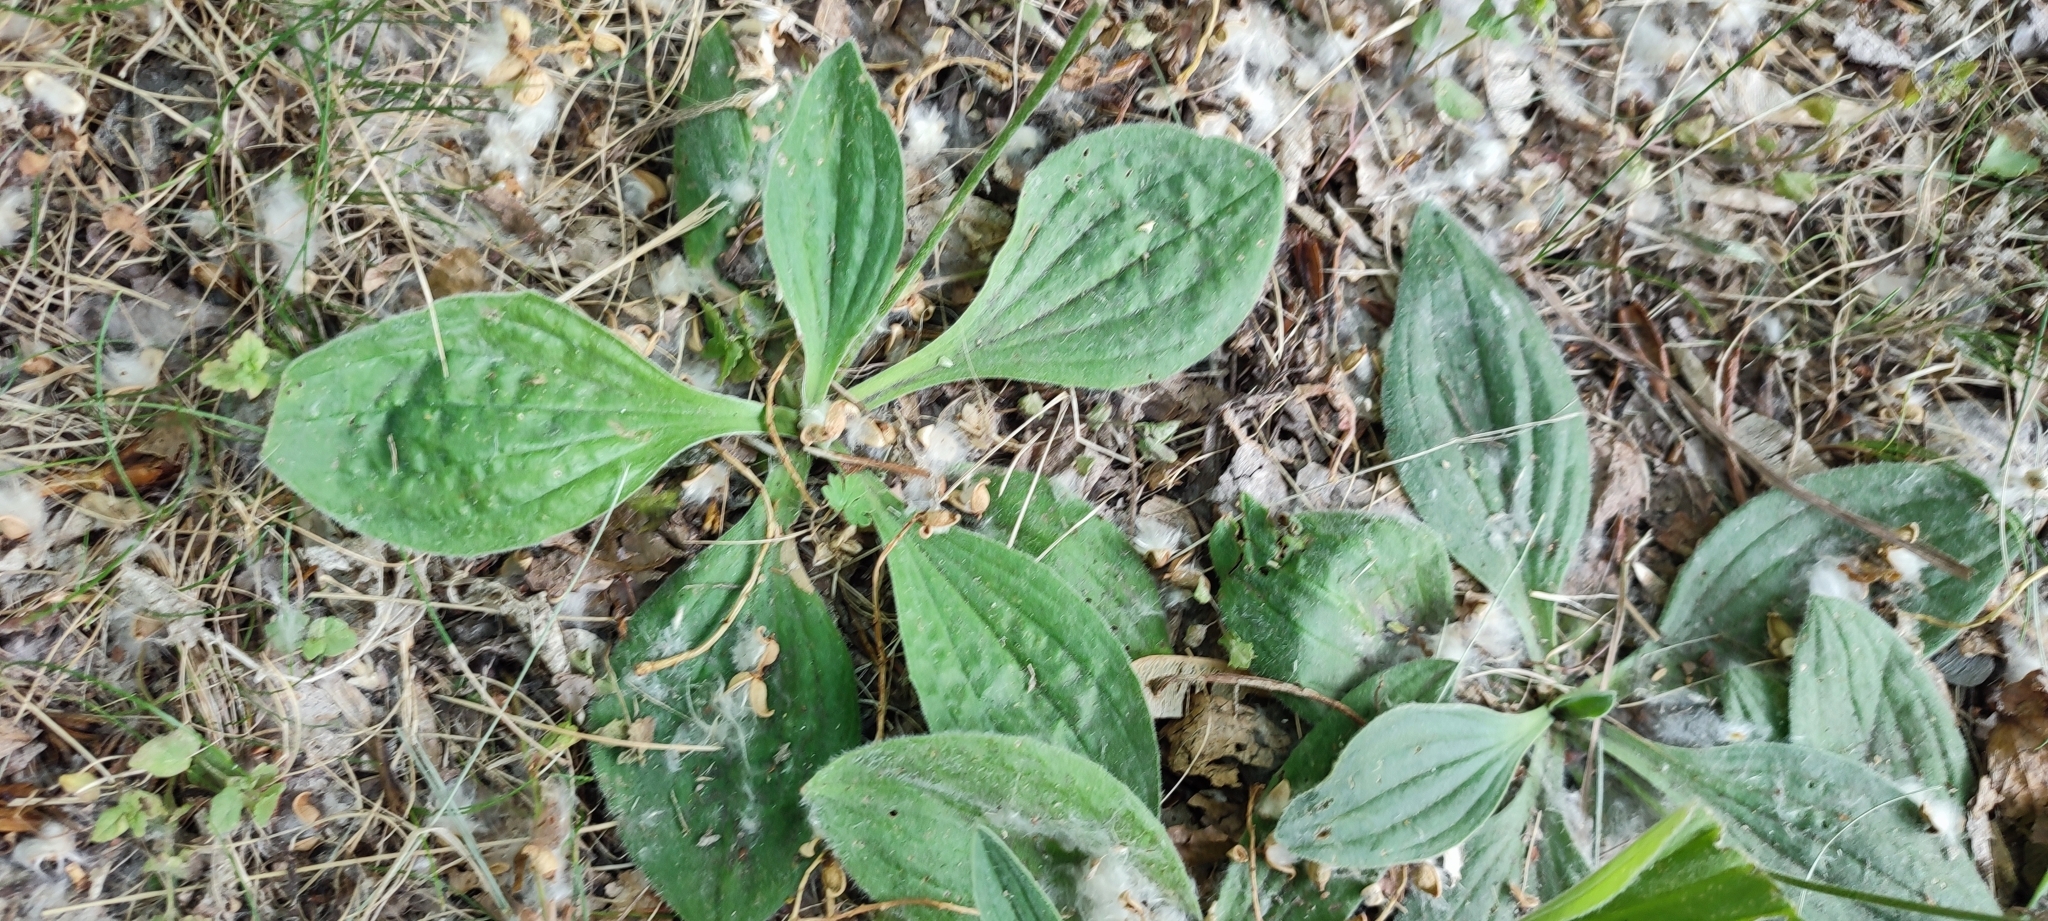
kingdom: Plantae
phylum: Tracheophyta
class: Magnoliopsida
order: Lamiales
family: Plantaginaceae
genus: Plantago
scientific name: Plantago media
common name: Hoary plantain
